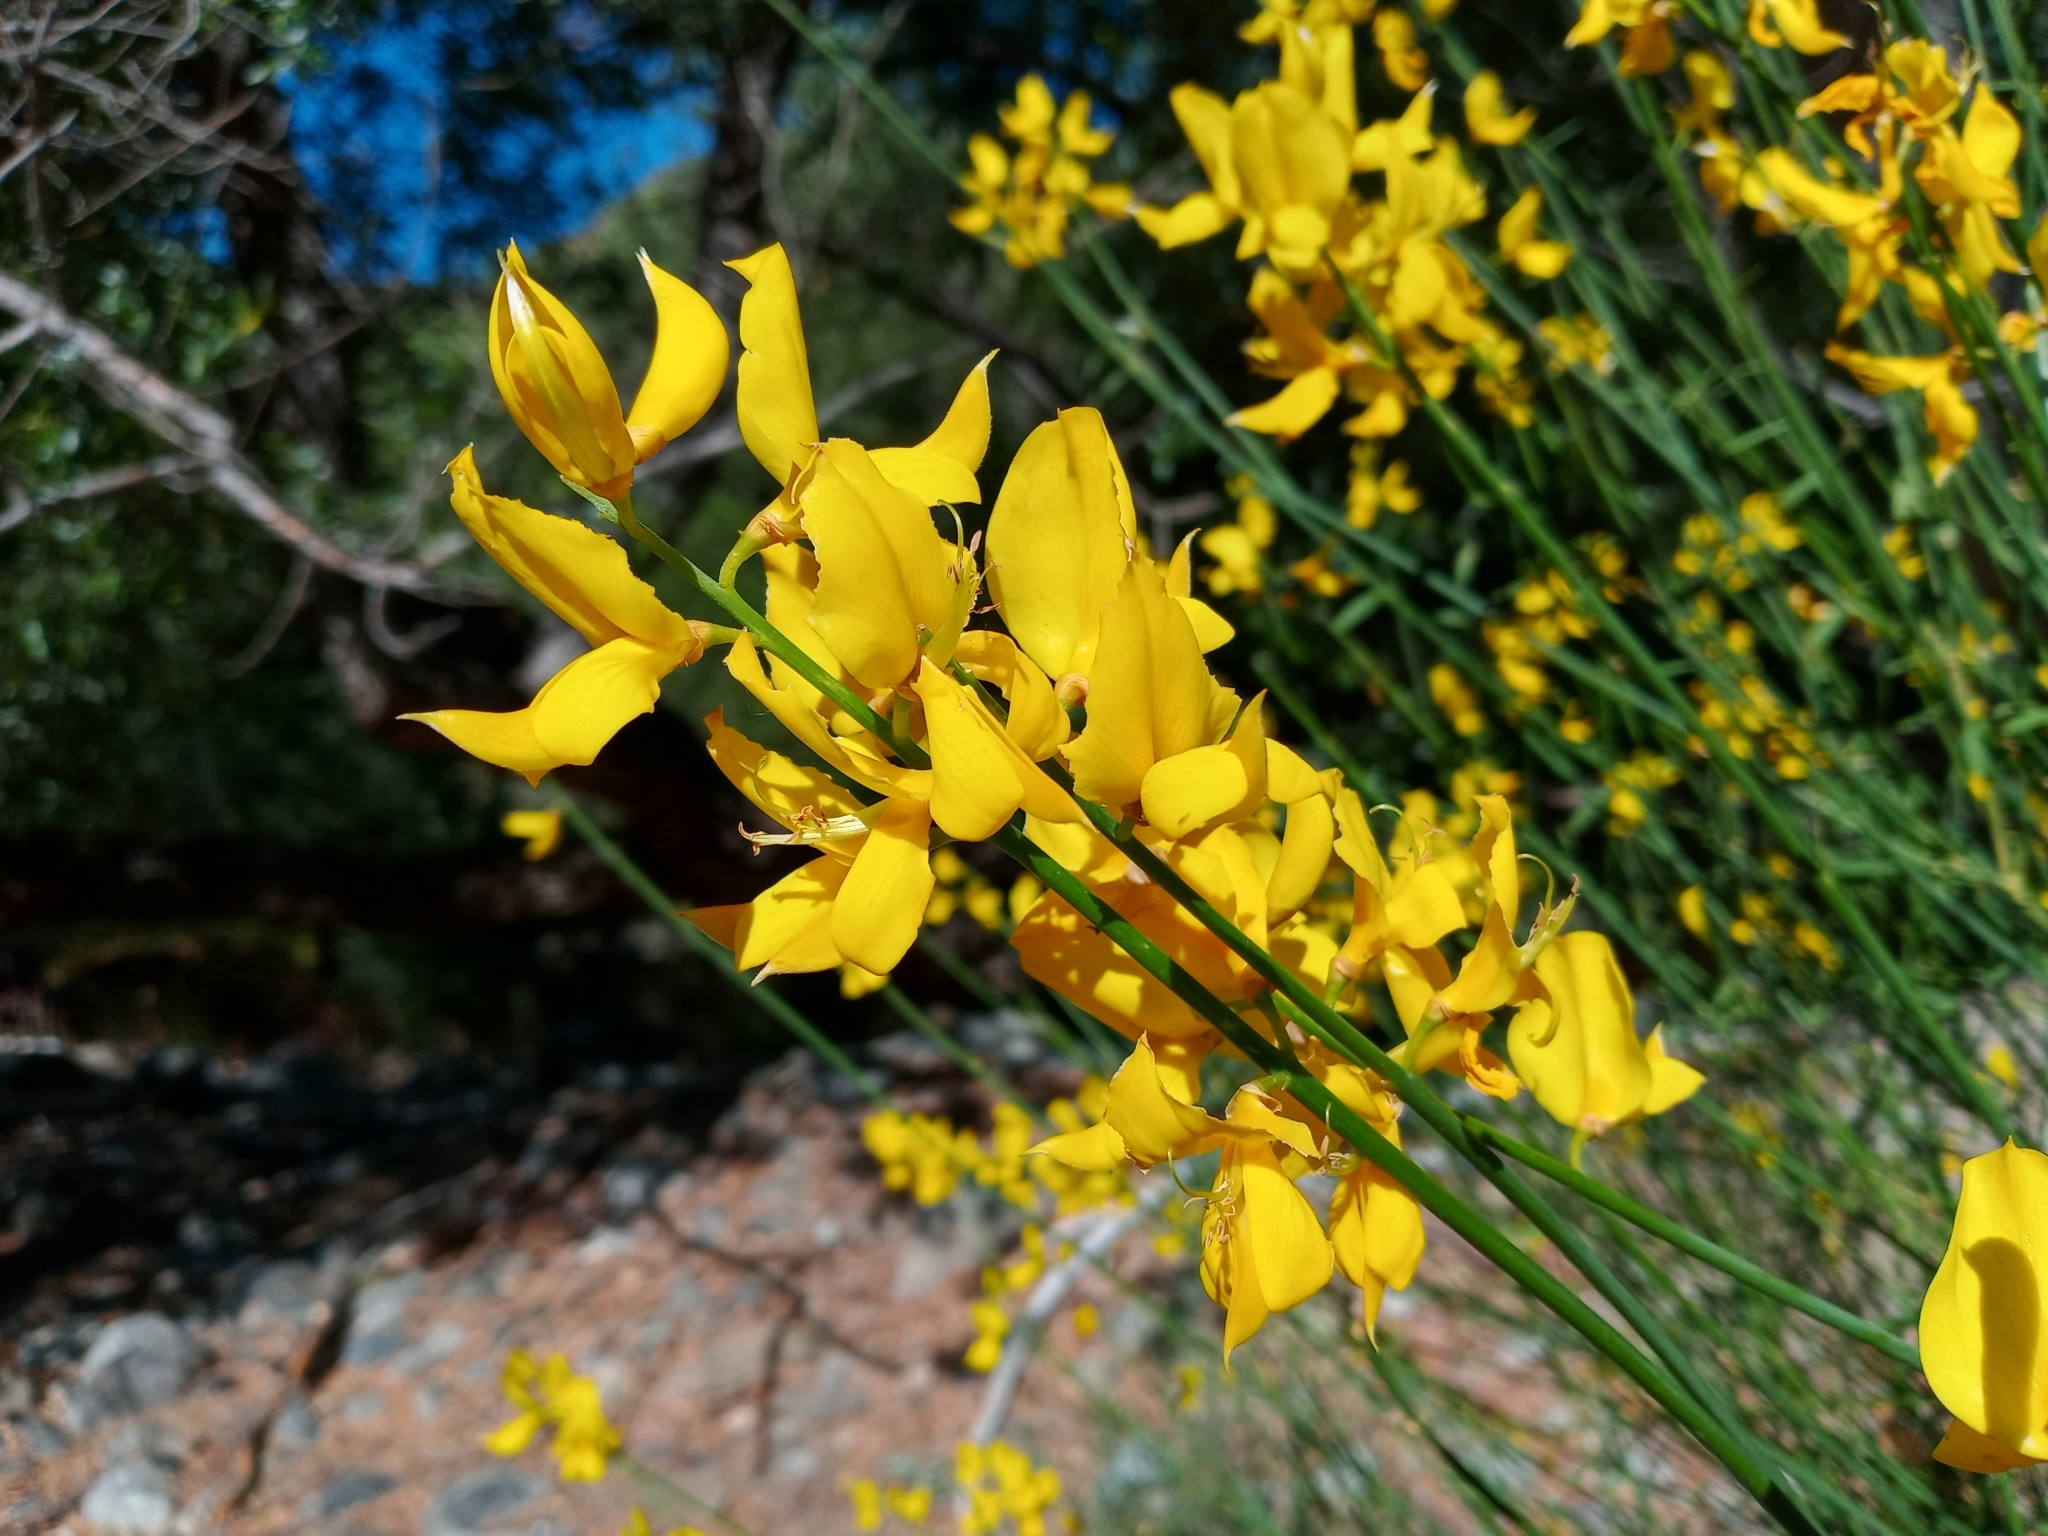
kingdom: Plantae
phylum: Tracheophyta
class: Magnoliopsida
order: Fabales
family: Fabaceae
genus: Spartium
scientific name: Spartium junceum
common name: Spanish broom
